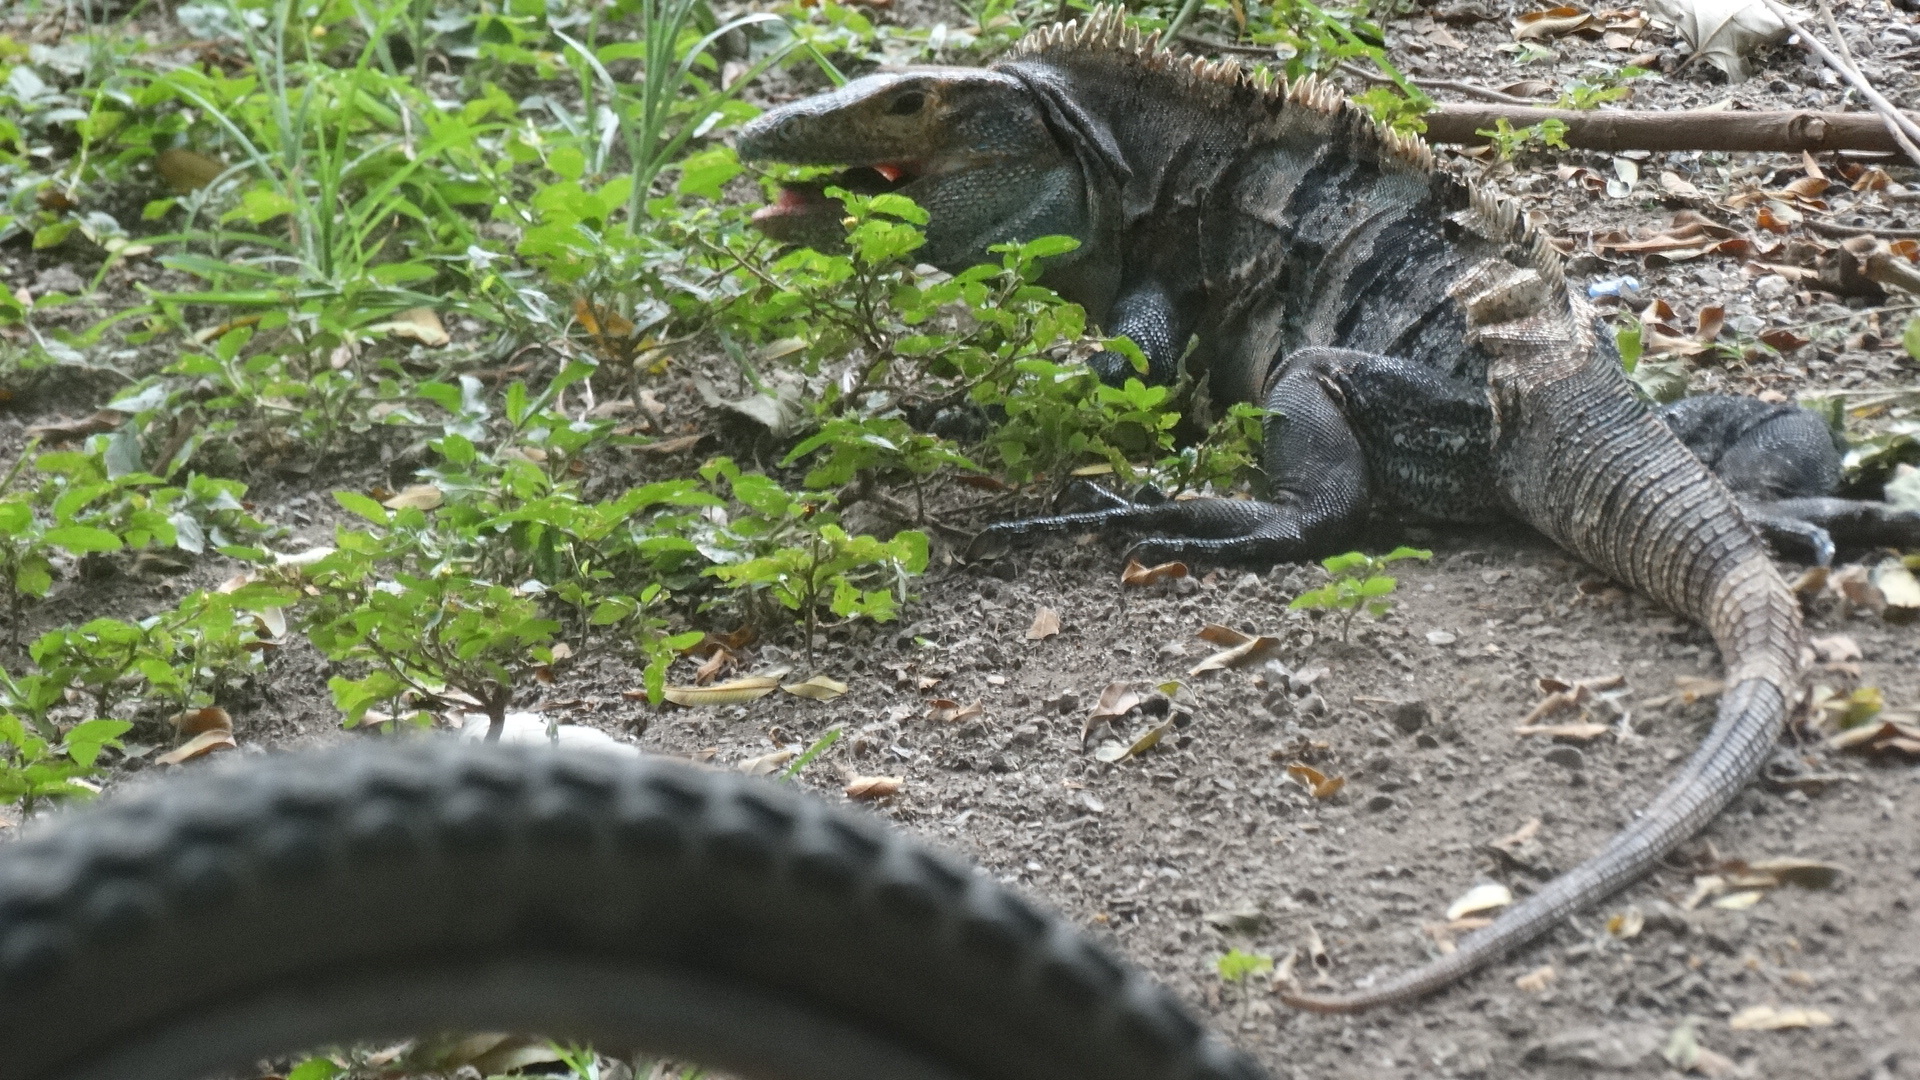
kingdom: Animalia
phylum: Chordata
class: Squamata
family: Iguanidae
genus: Ctenosaura
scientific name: Ctenosaura similis
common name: Black spiny-tailed iguana
